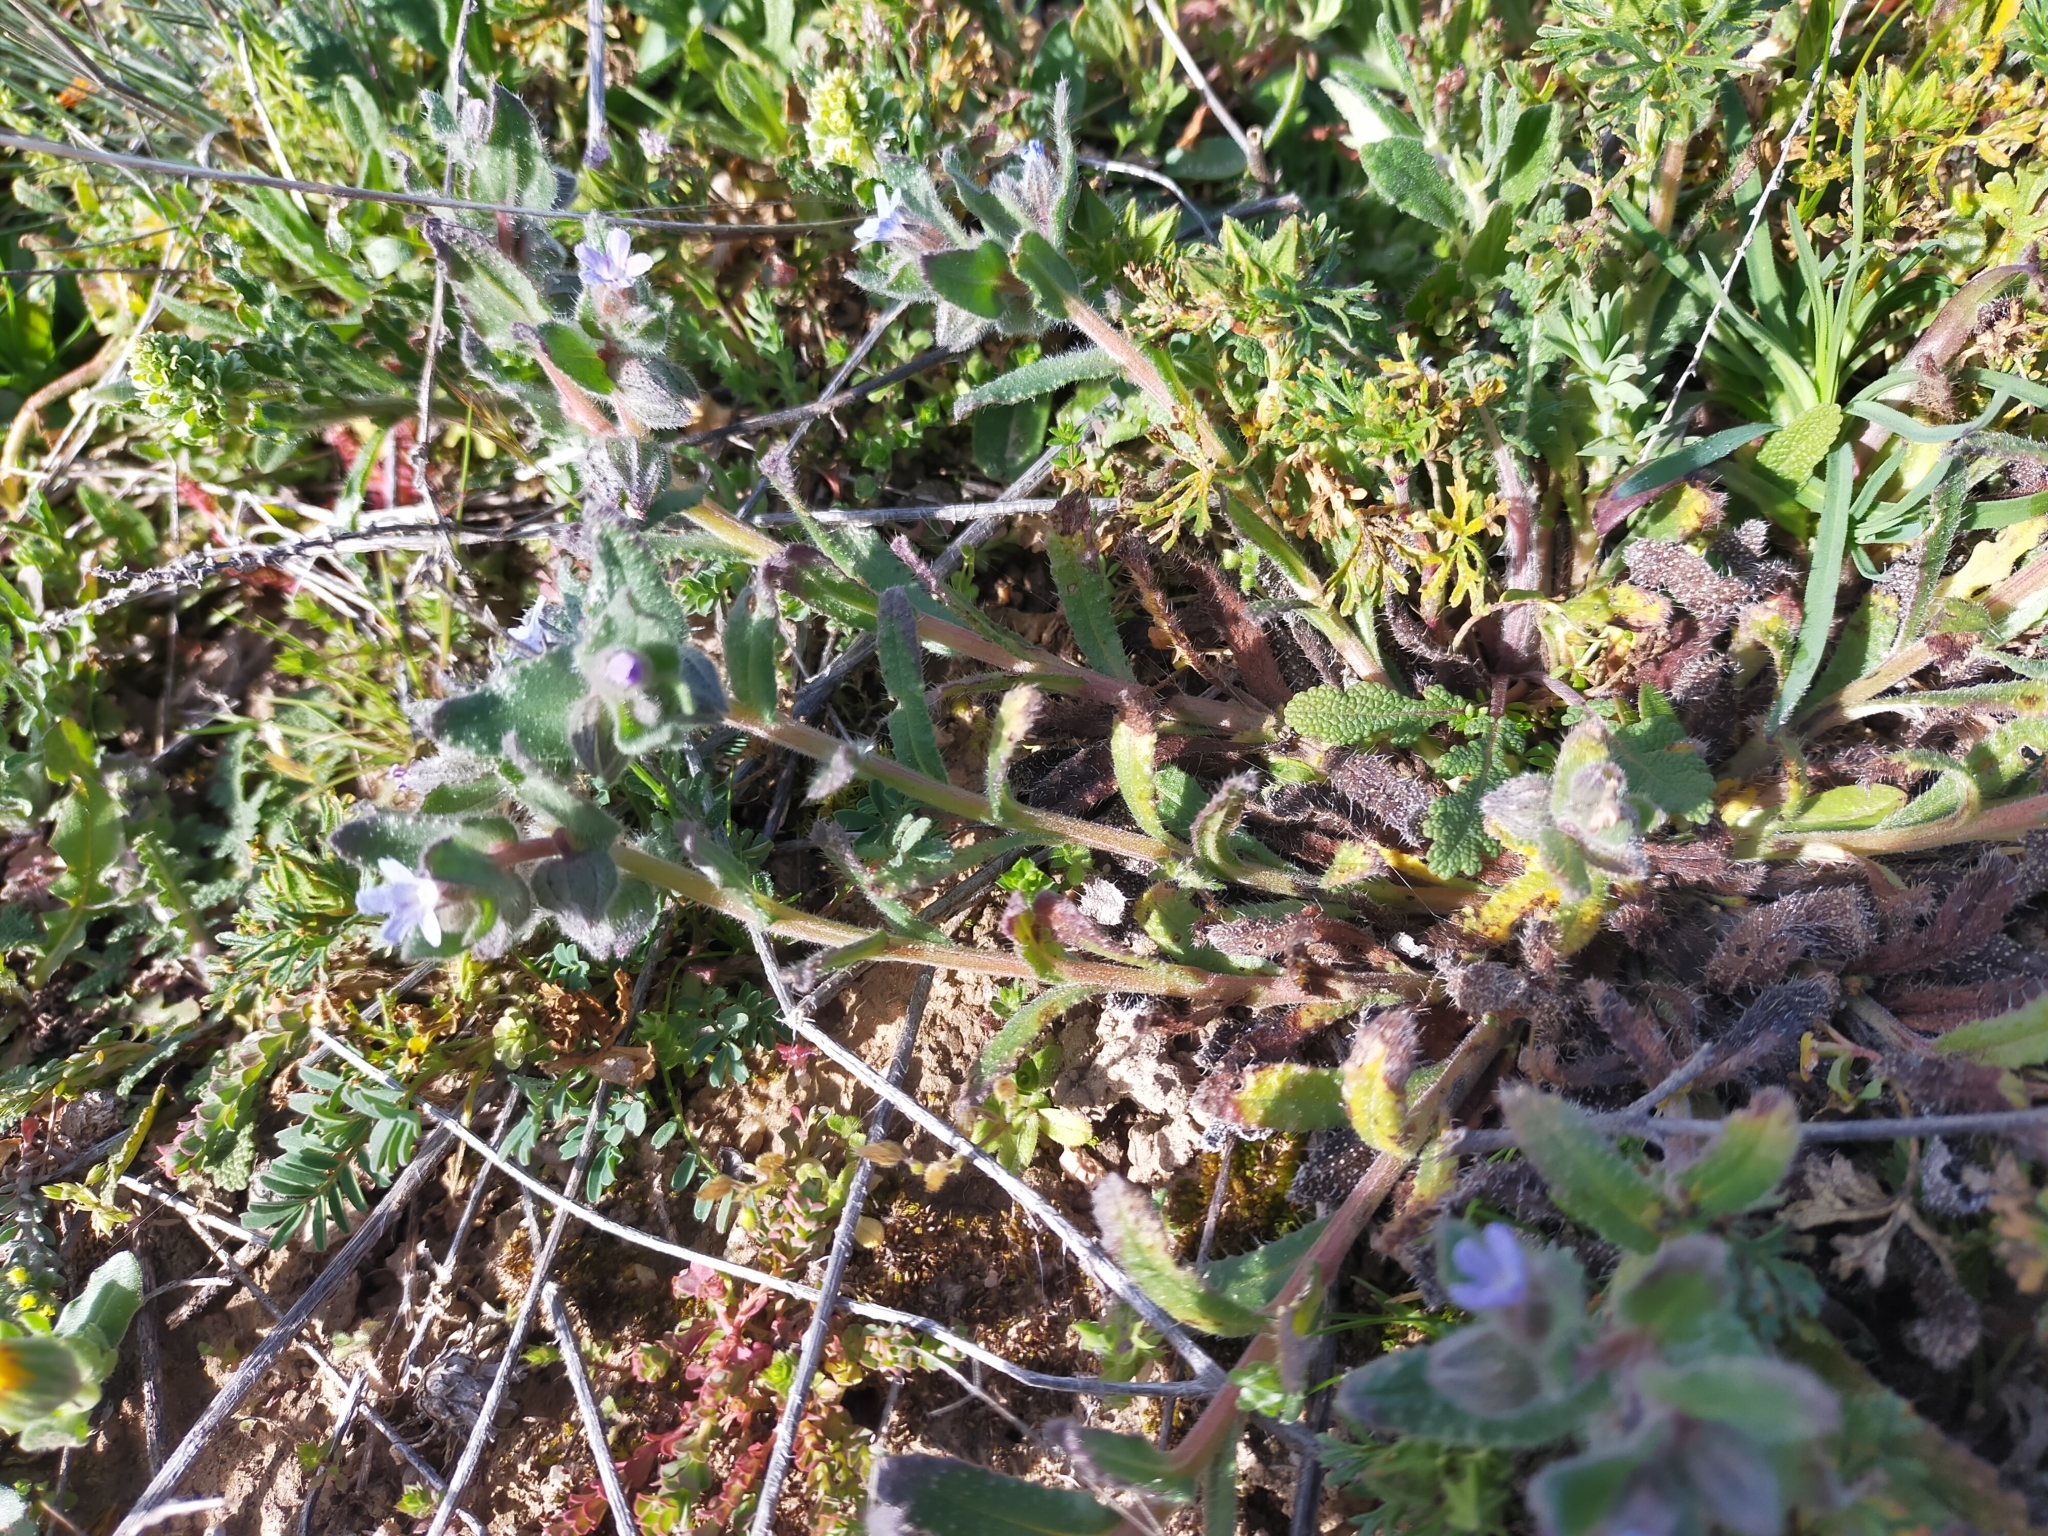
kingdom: Plantae
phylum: Tracheophyta
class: Magnoliopsida
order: Boraginales
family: Boraginaceae
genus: Nonea
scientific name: Nonea micrantha
